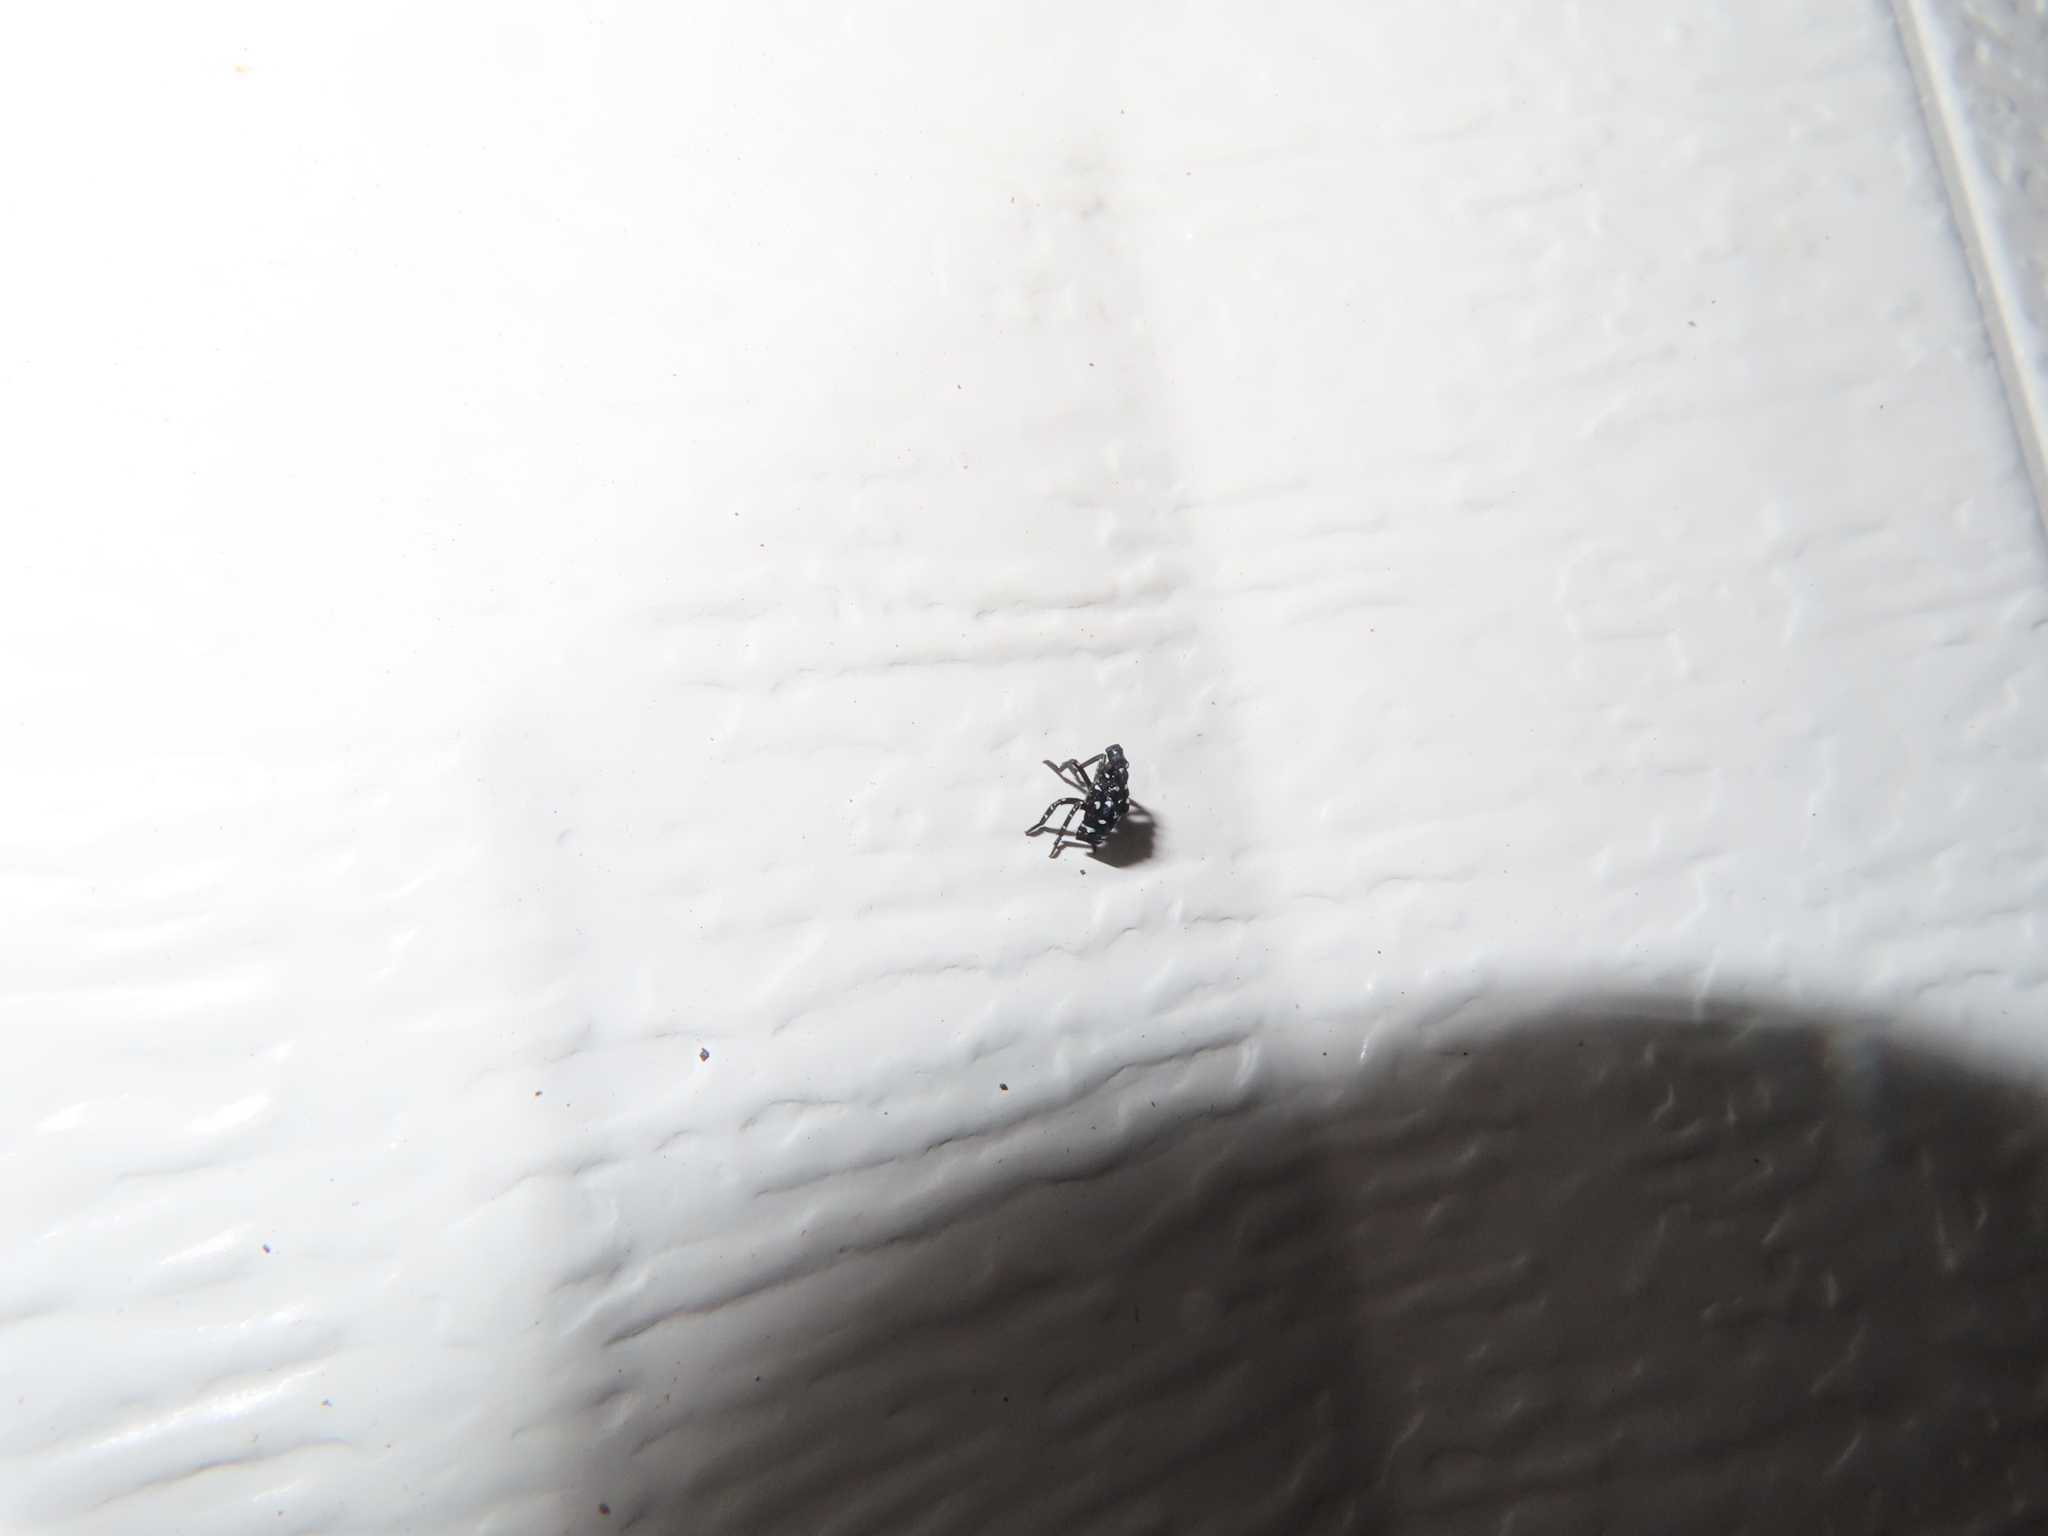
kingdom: Animalia
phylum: Arthropoda
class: Insecta
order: Hemiptera
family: Fulgoridae
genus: Lycorma
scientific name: Lycorma delicatula
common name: Spotted lanternfly
